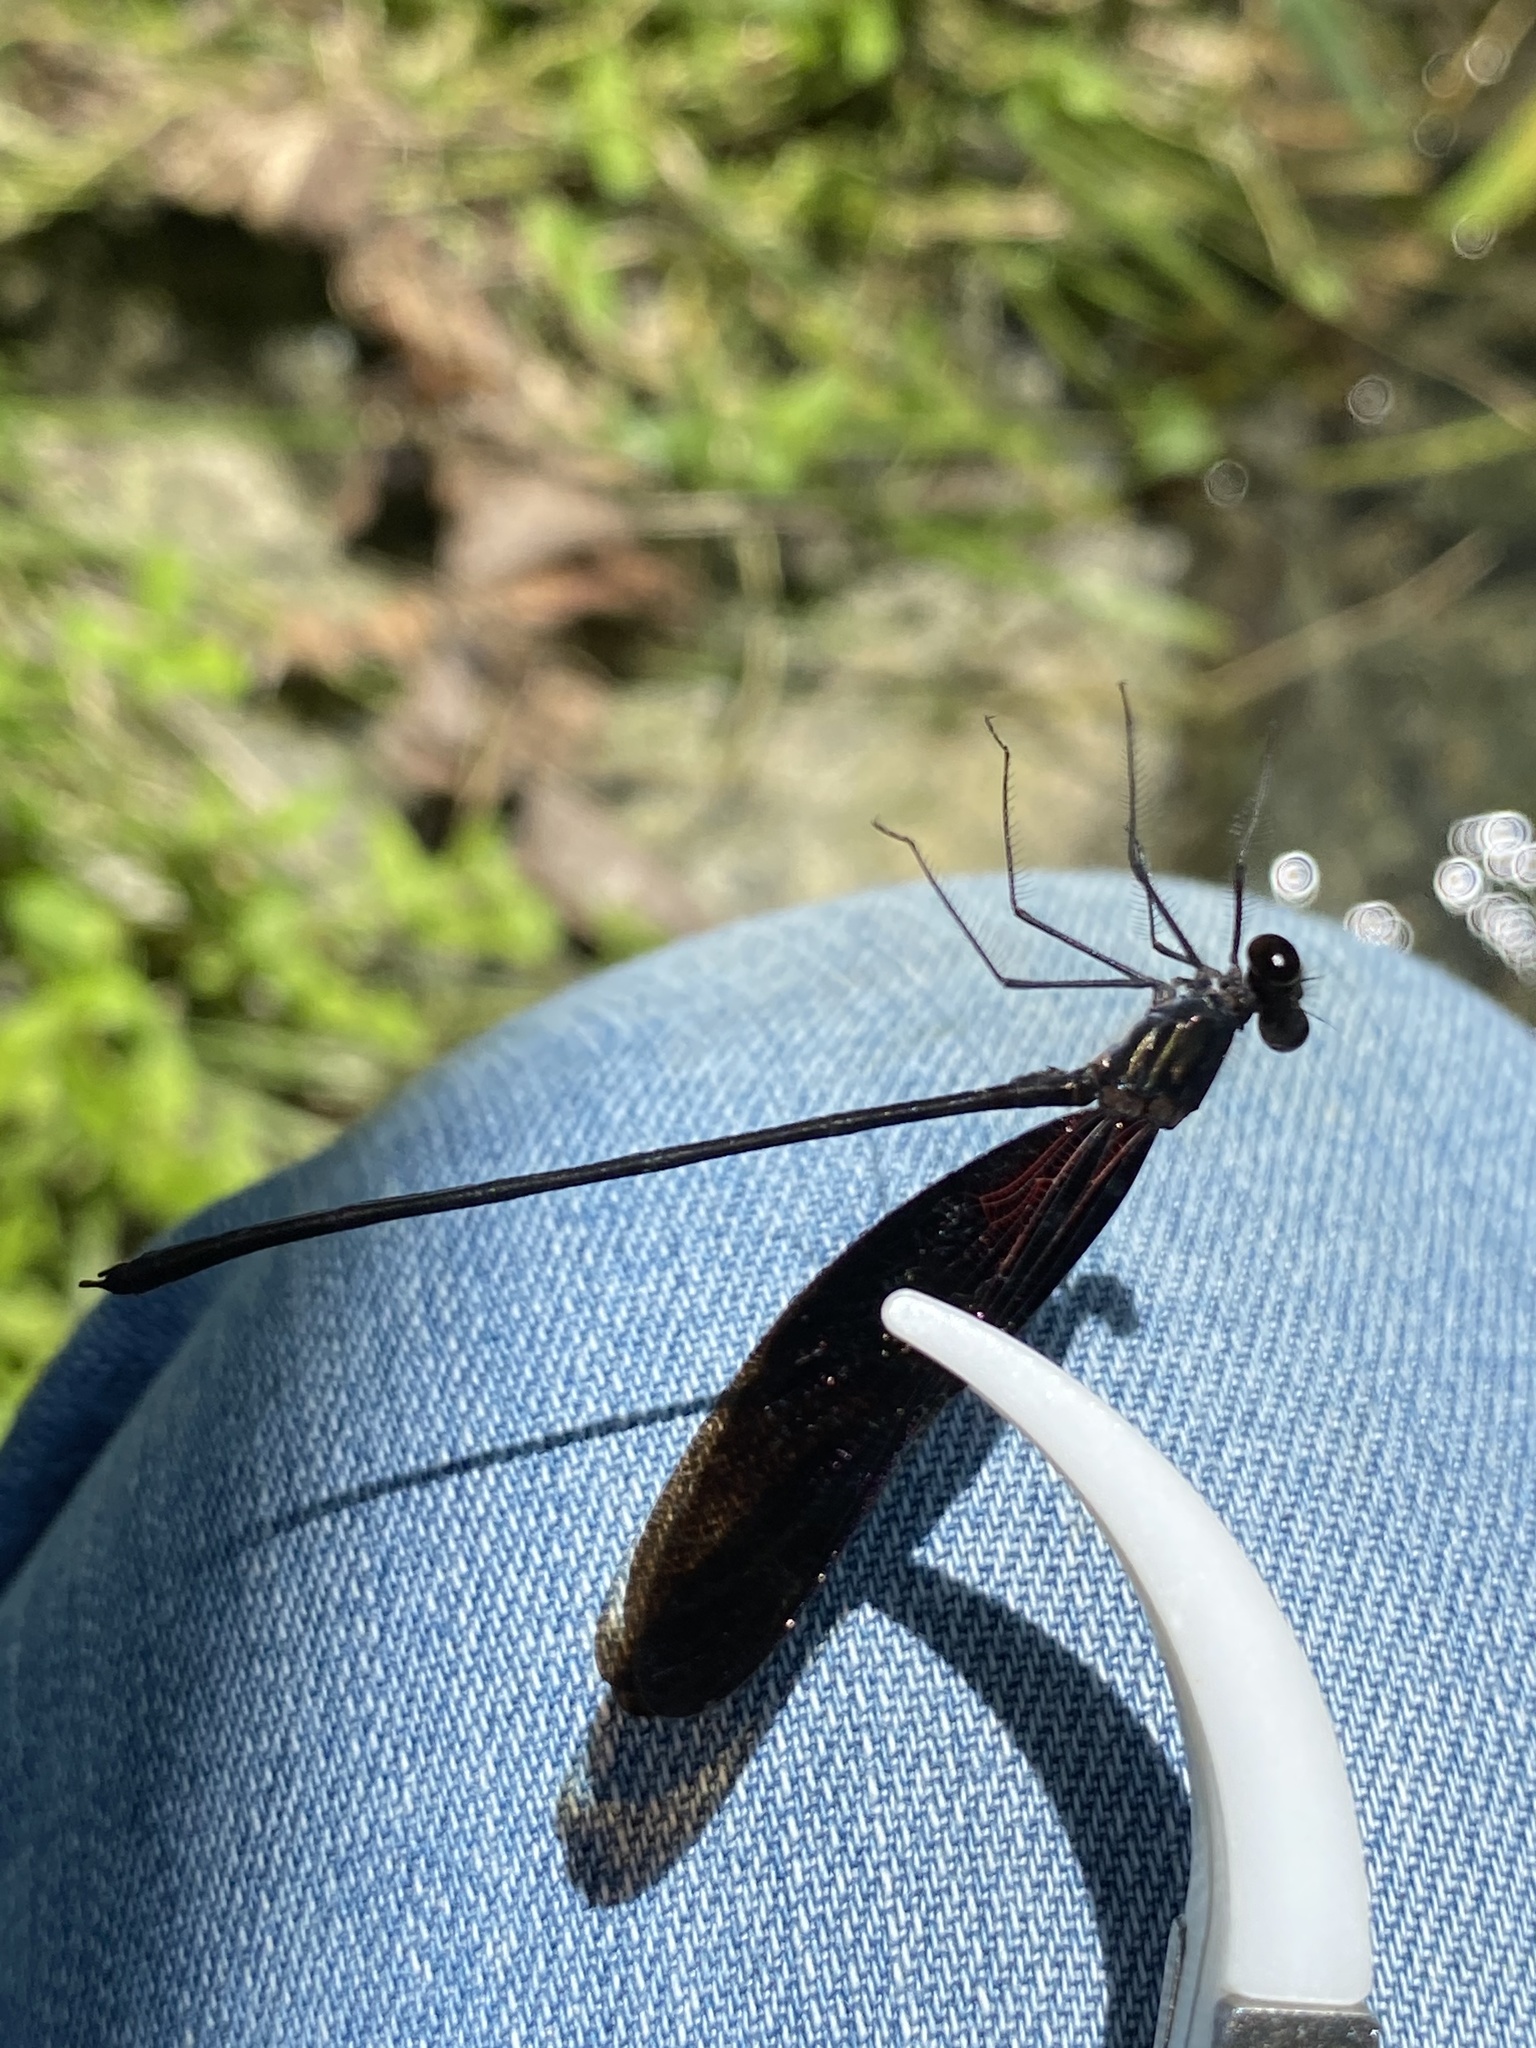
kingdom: Animalia
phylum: Arthropoda
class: Insecta
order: Odonata
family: Calopterygidae
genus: Hetaerina
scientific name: Hetaerina titia
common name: Smoky rubyspot
